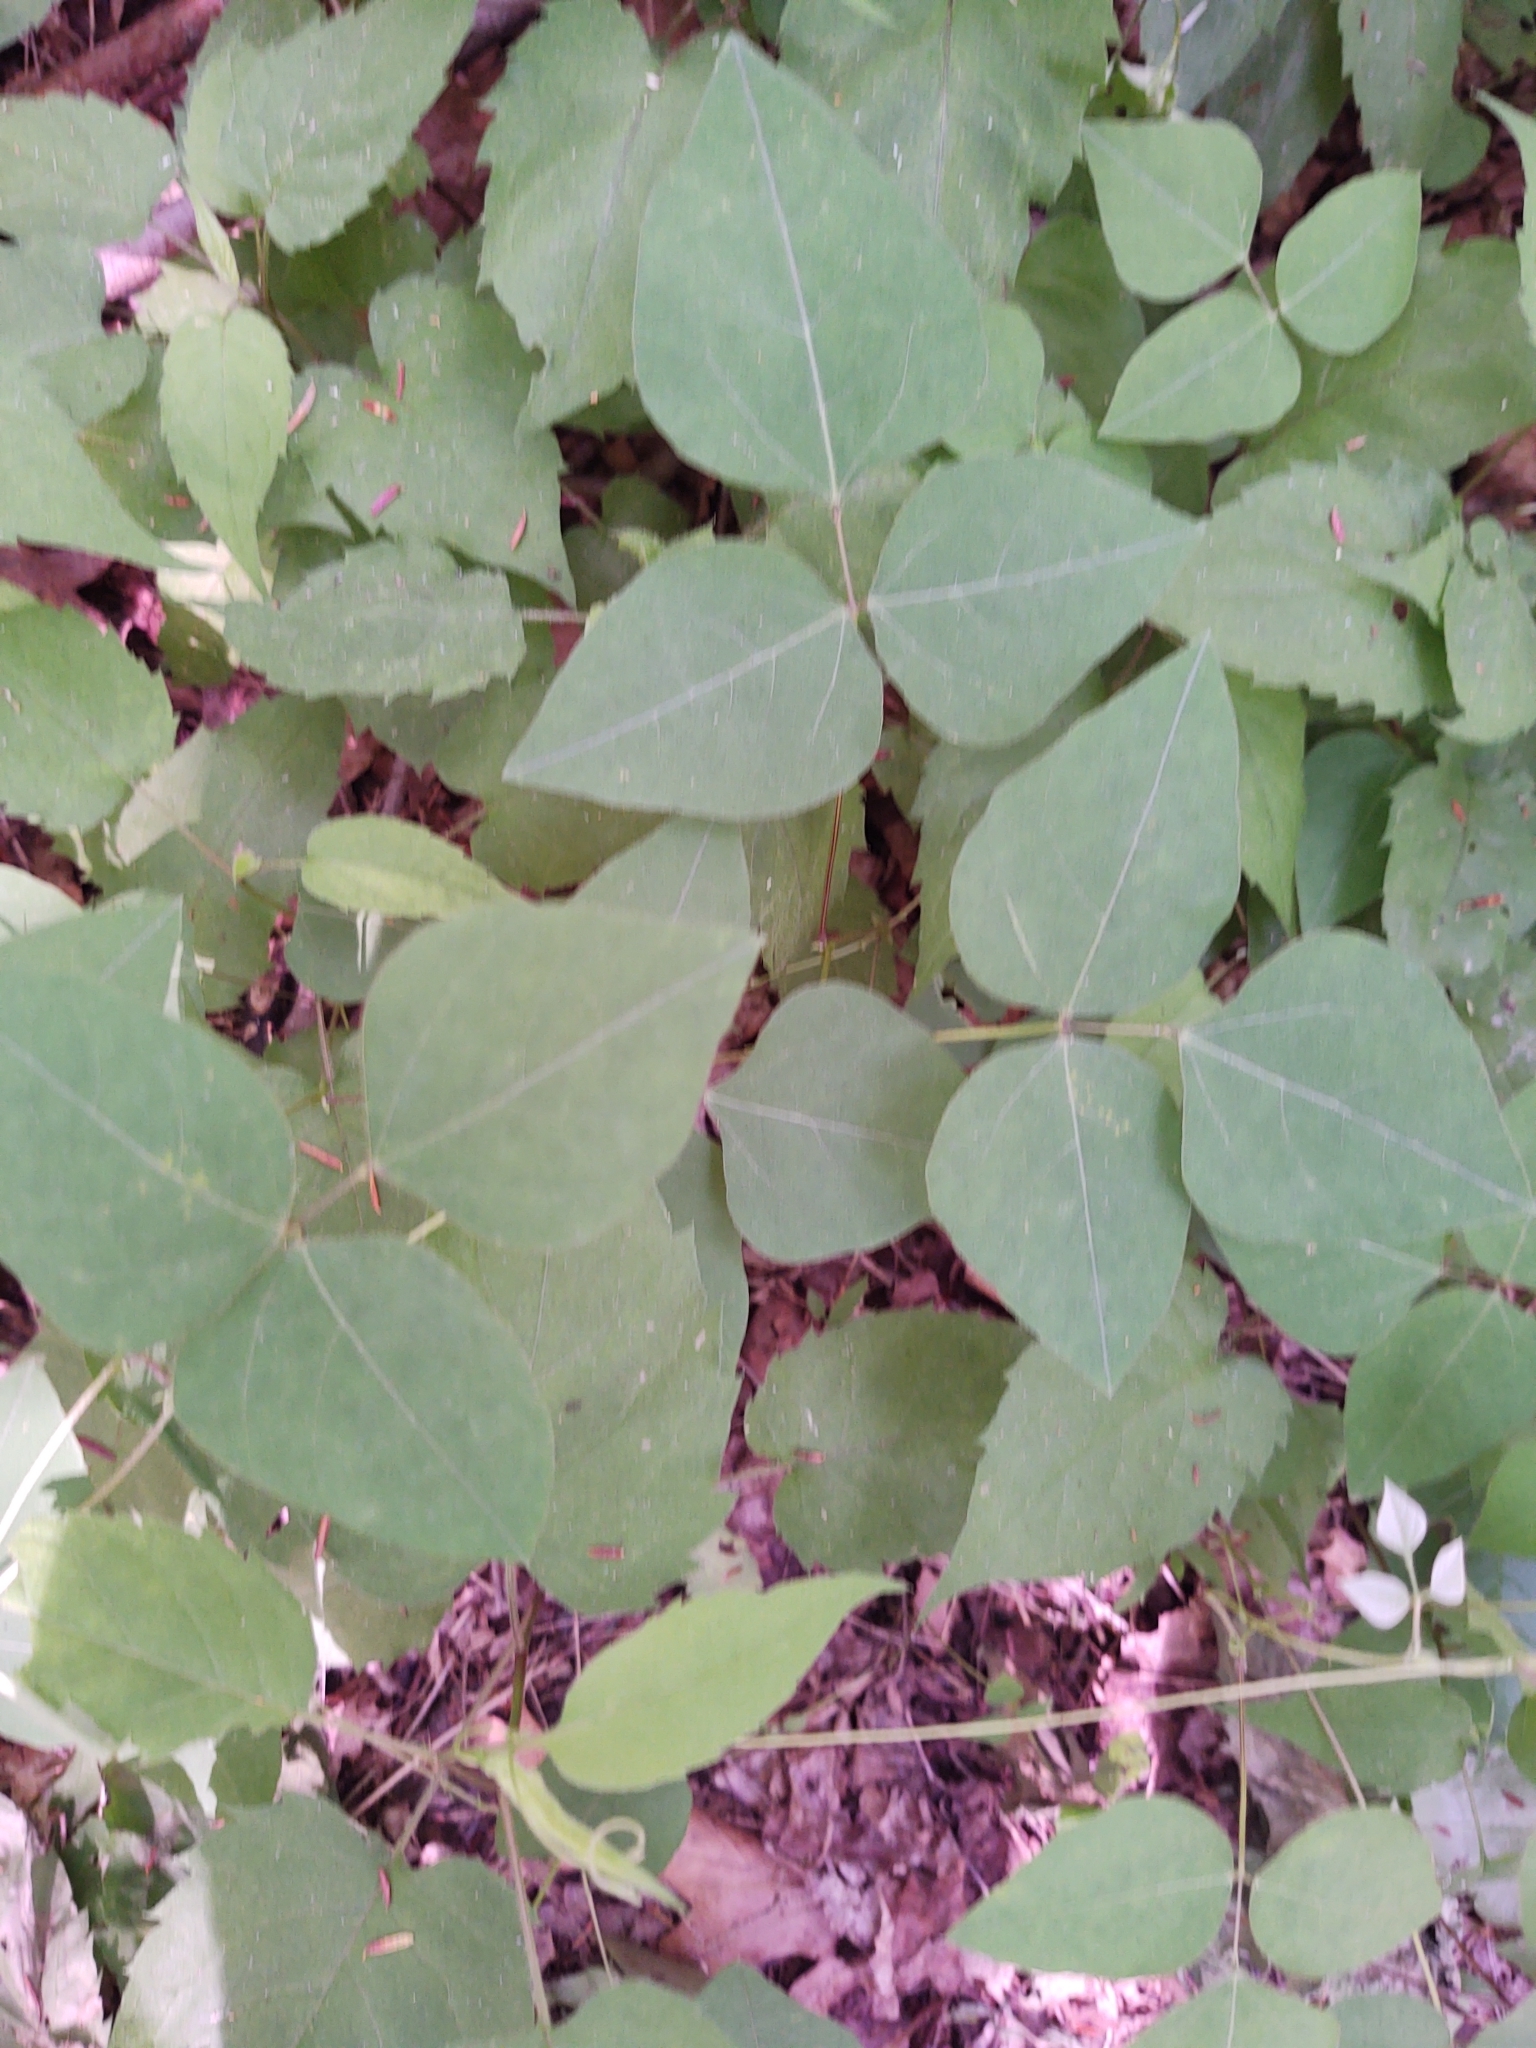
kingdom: Plantae
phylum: Tracheophyta
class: Magnoliopsida
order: Fabales
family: Fabaceae
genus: Amphicarpaea
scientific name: Amphicarpaea bracteata
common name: American hog peanut
